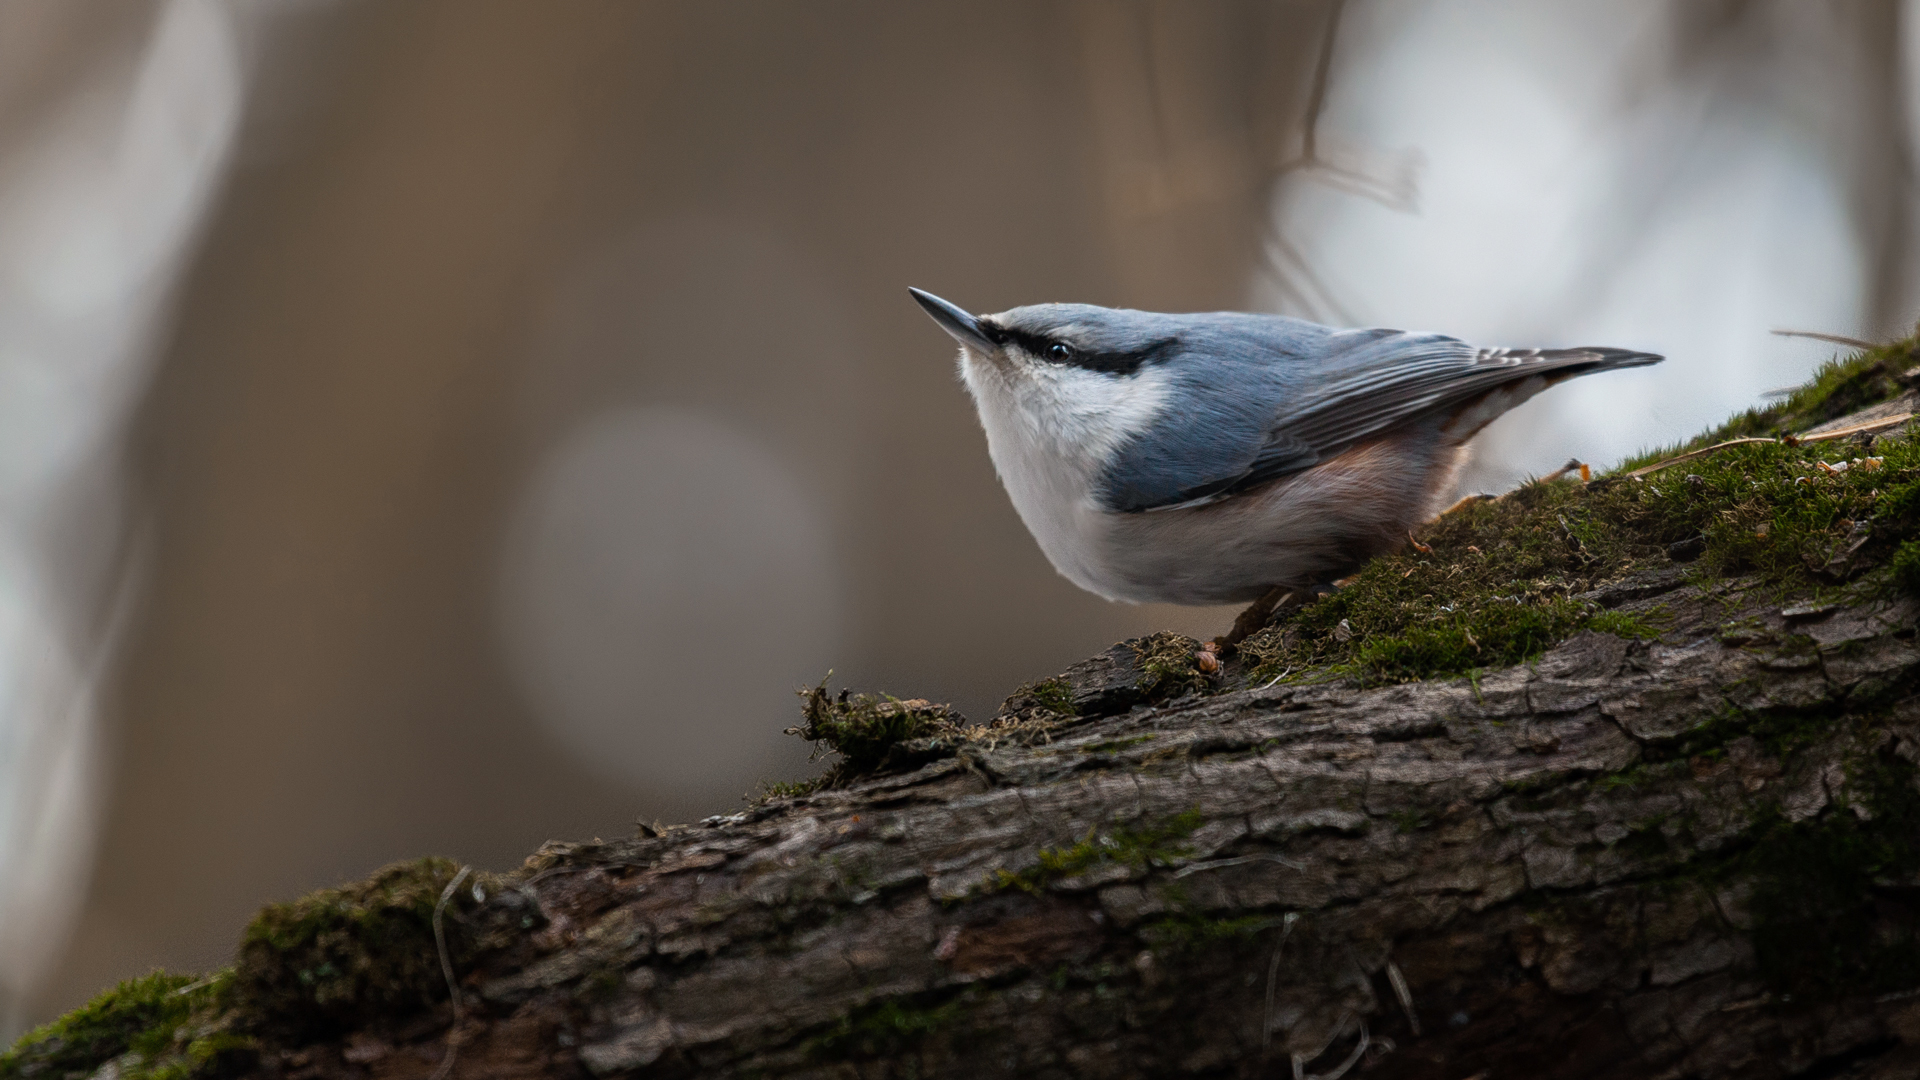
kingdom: Animalia
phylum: Chordata
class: Aves
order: Passeriformes
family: Sittidae
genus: Sitta
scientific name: Sitta europaea
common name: Eurasian nuthatch
